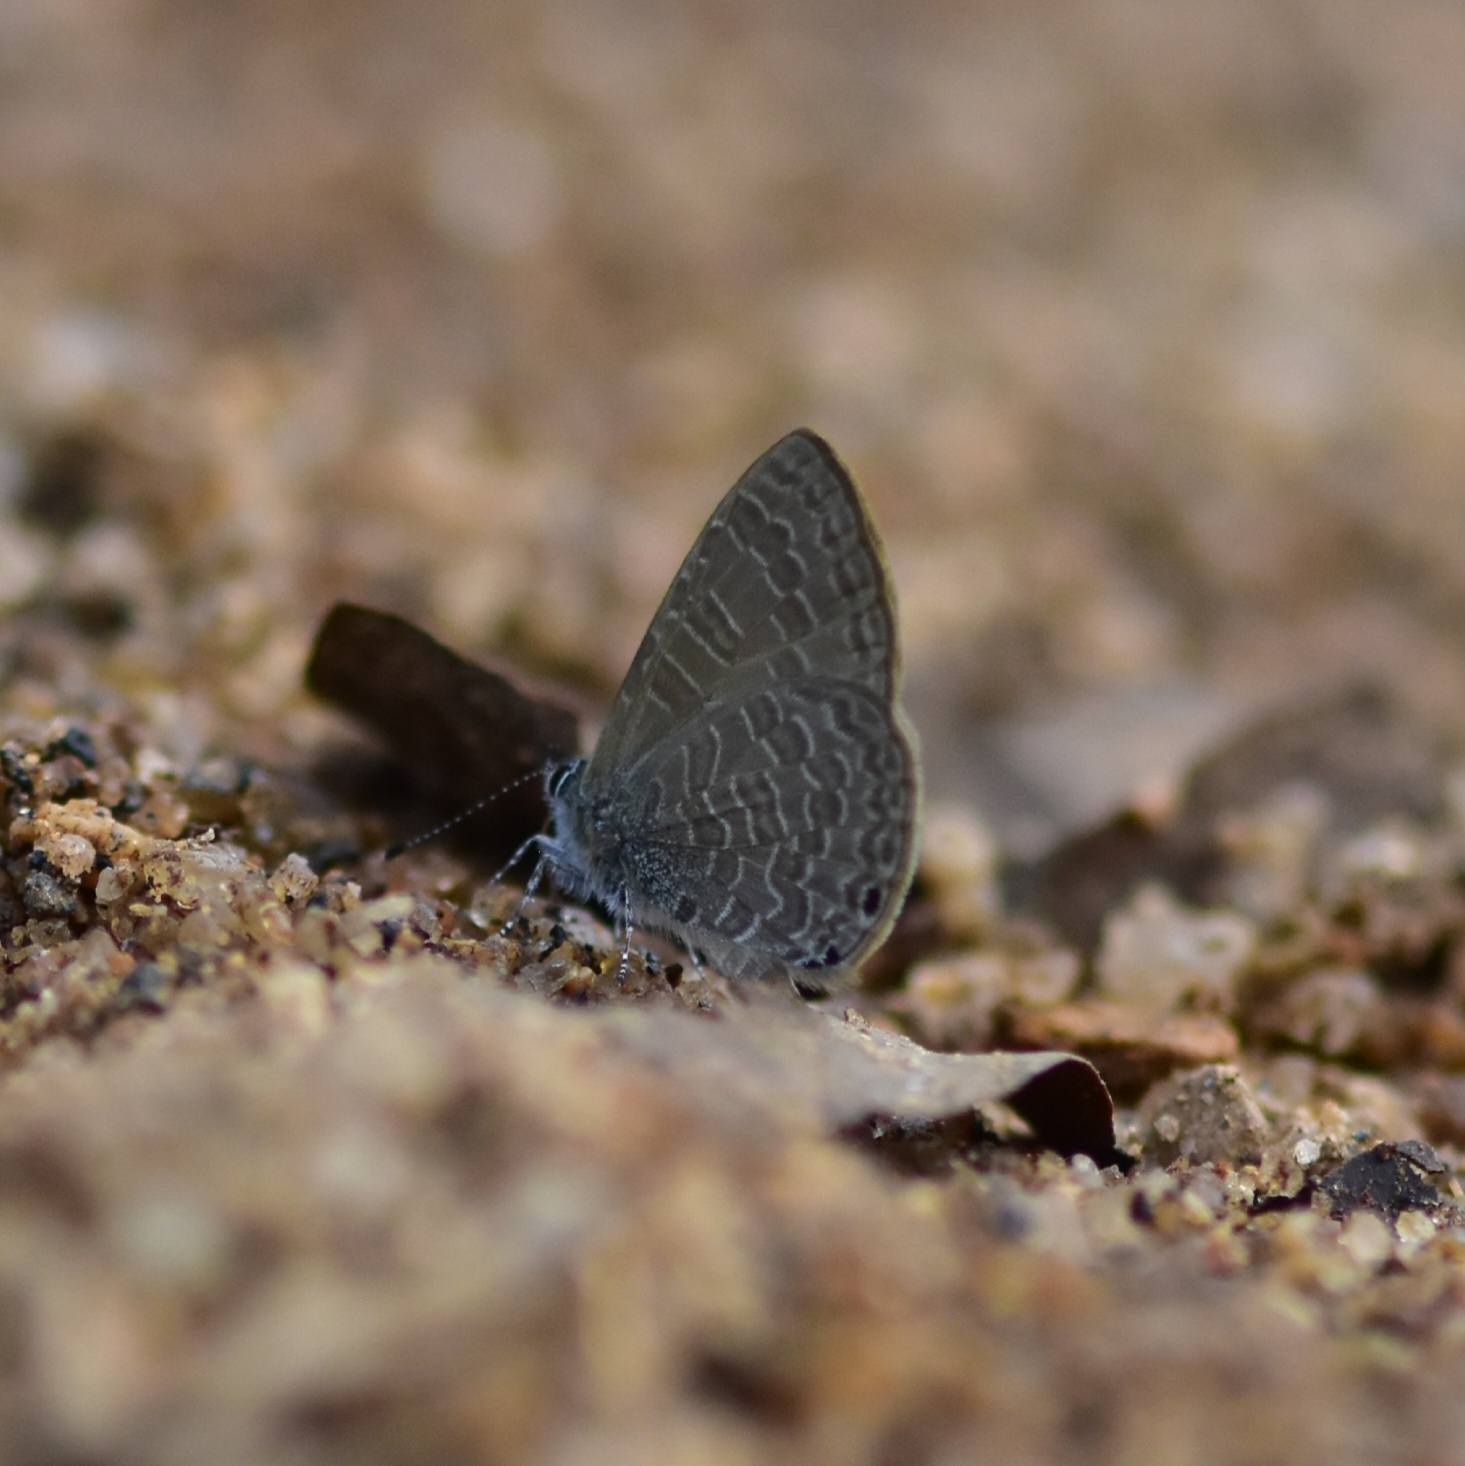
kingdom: Animalia
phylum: Arthropoda
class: Insecta
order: Lepidoptera
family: Lycaenidae
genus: Petrelaea
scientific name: Petrelaea dana
